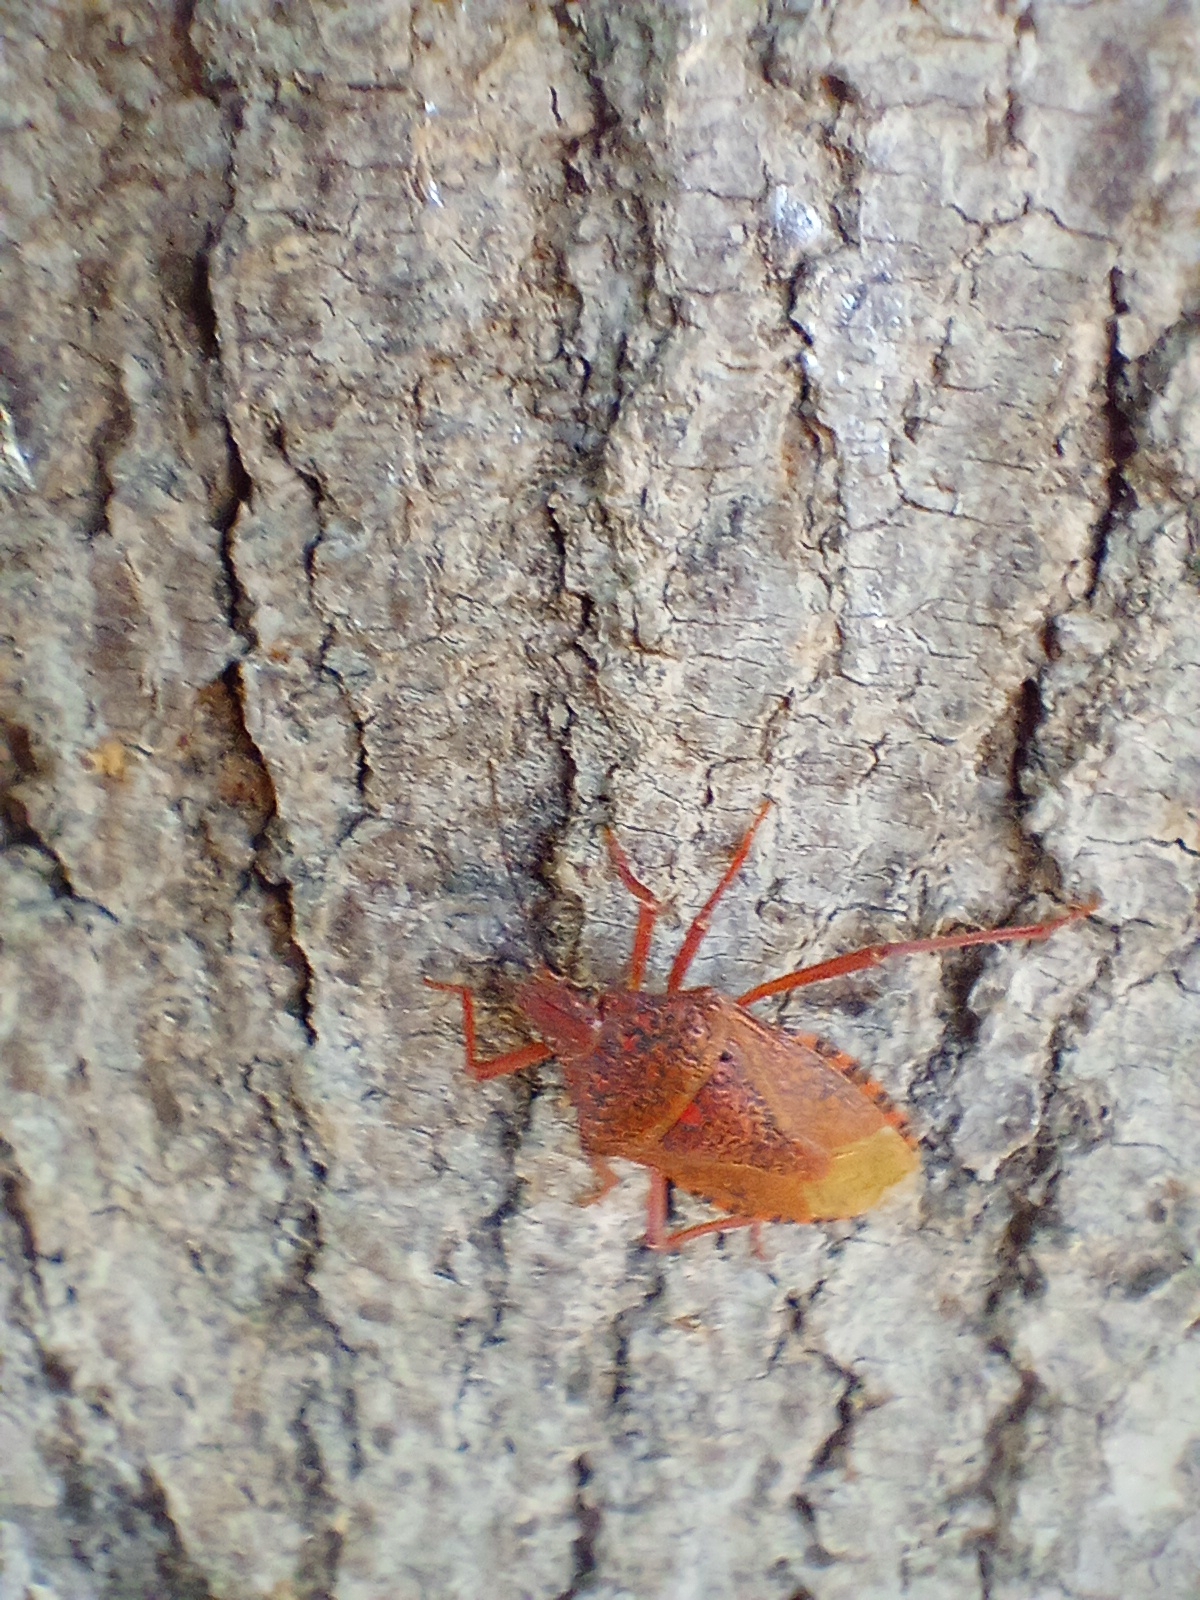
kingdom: Animalia
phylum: Arthropoda
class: Insecta
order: Hemiptera
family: Pentatomidae
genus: Apodiphus
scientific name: Apodiphus
